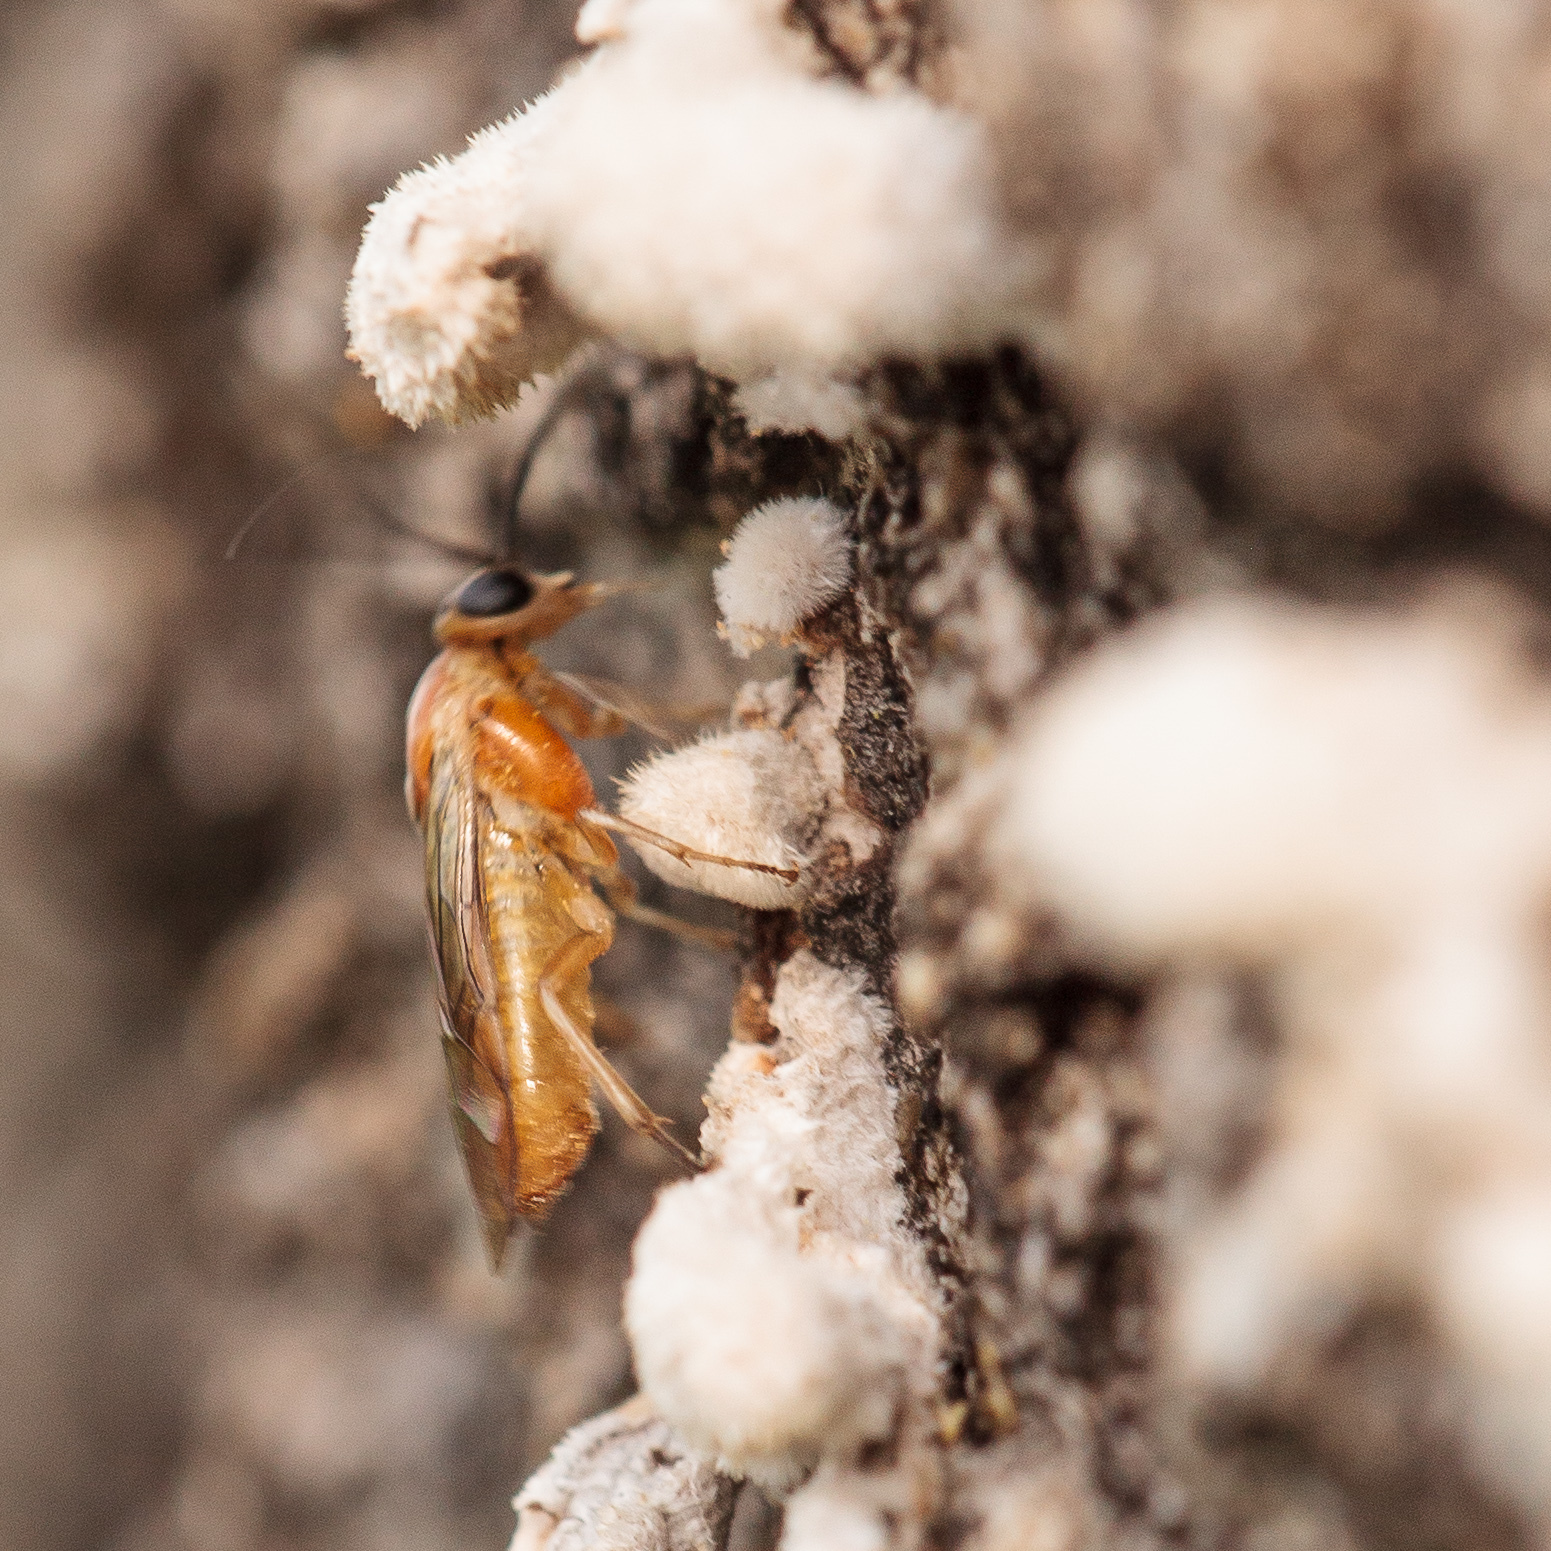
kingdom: Animalia
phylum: Arthropoda
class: Insecta
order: Hymenoptera
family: Tenthredinidae
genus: Pristiphora
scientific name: Pristiphora chlorea
